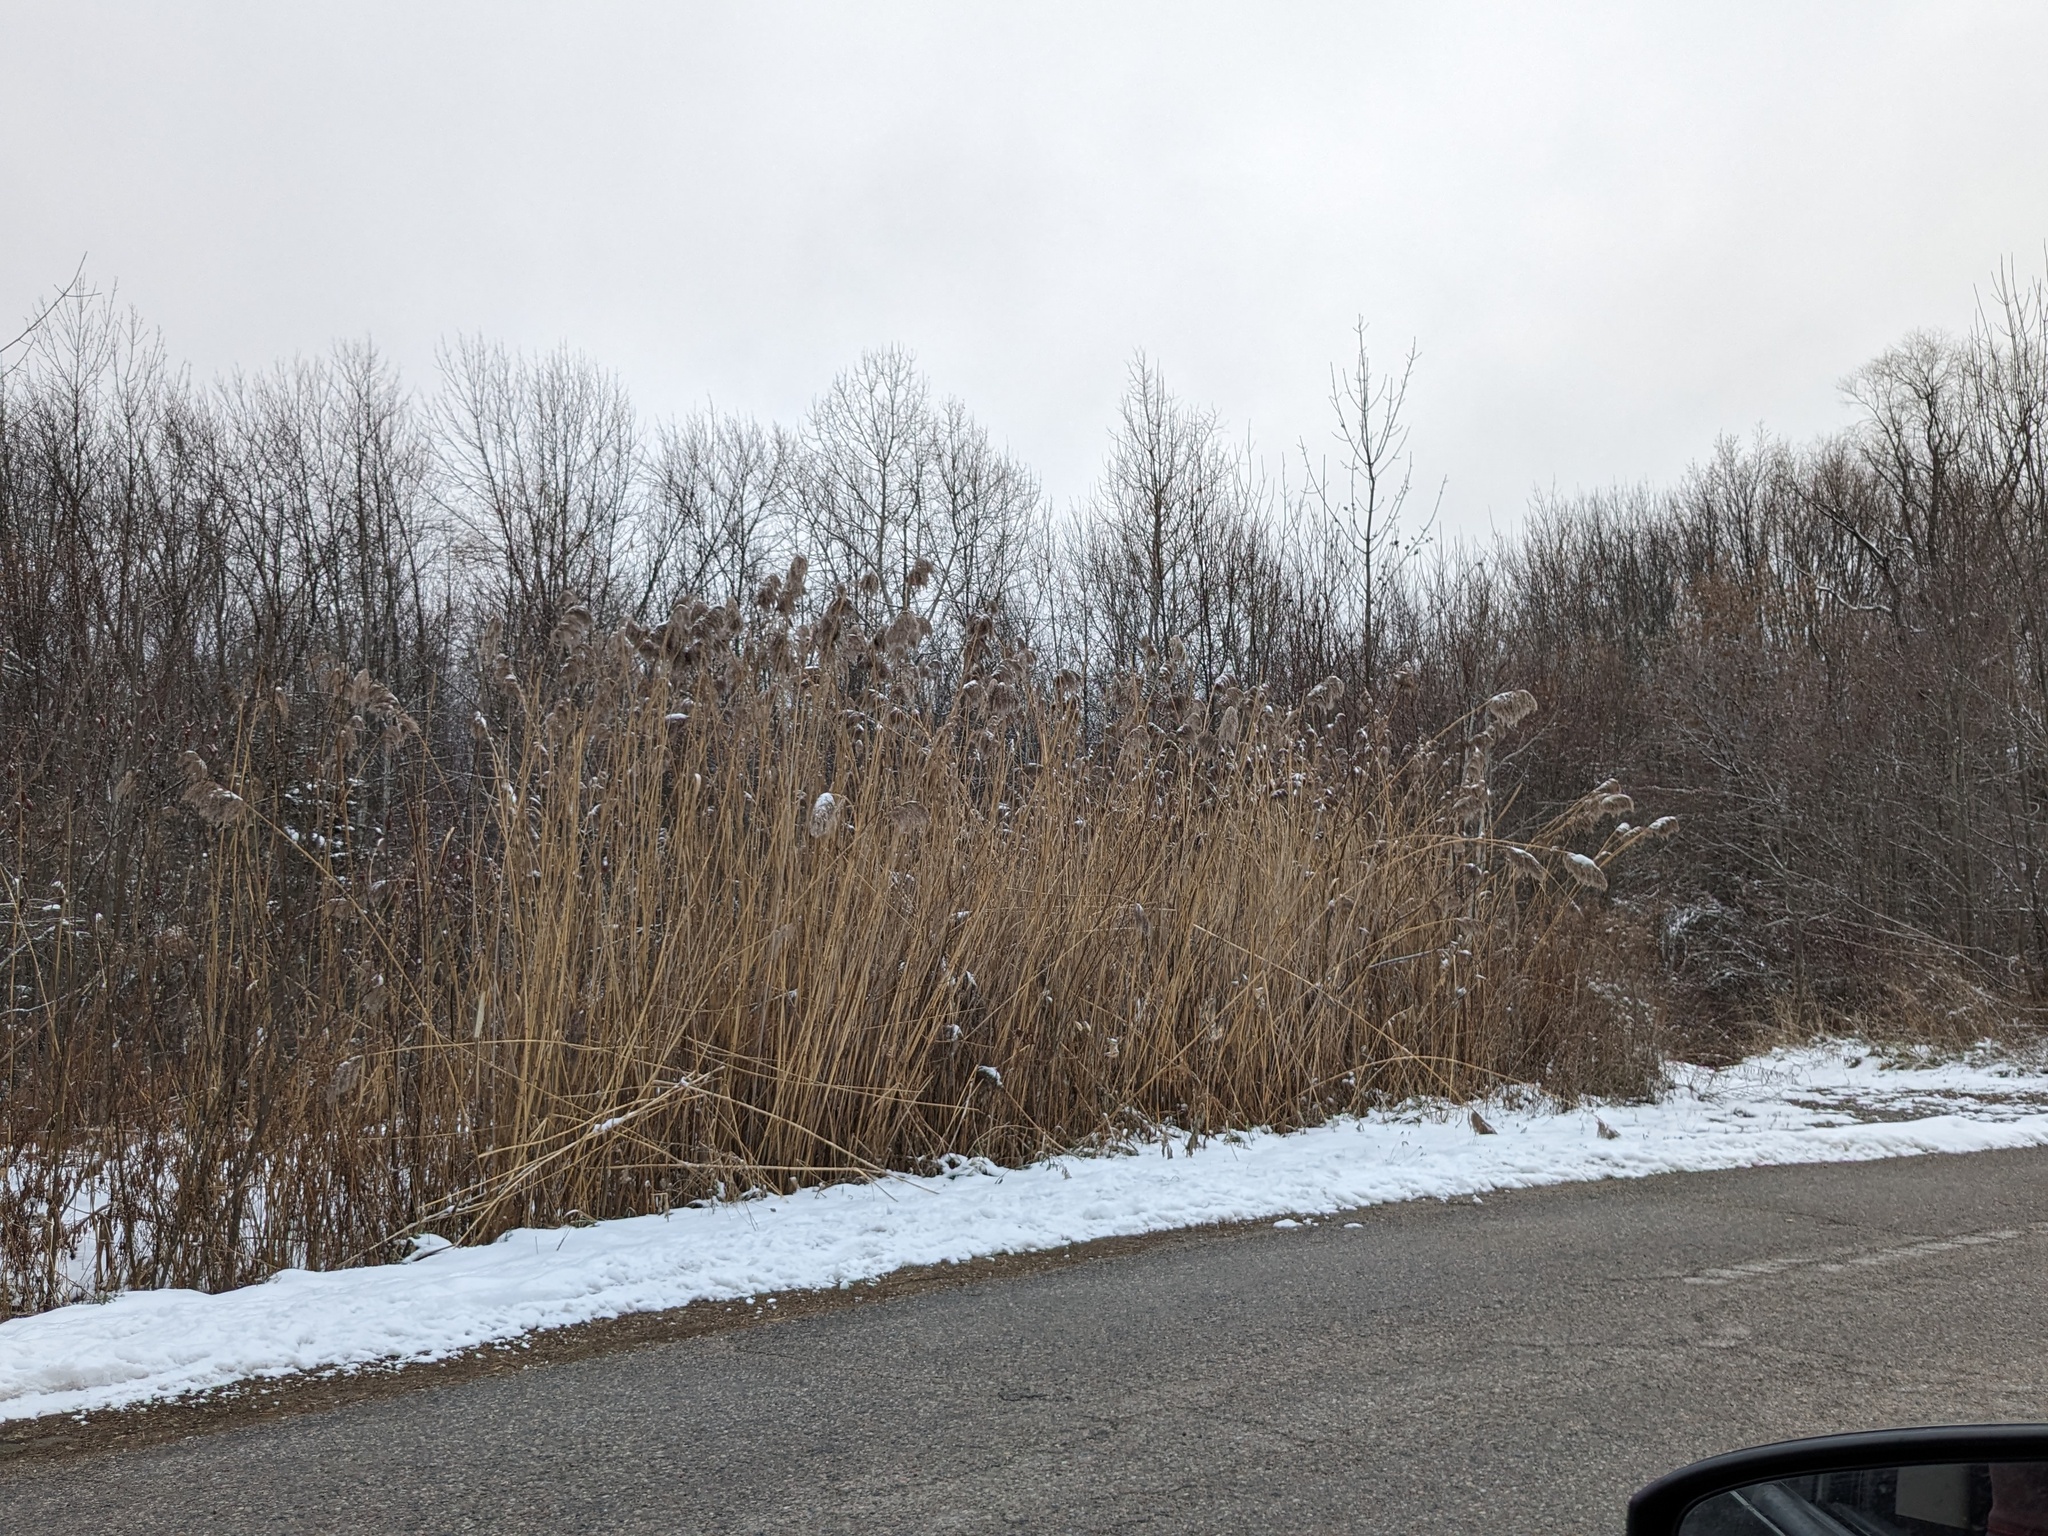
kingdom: Plantae
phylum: Tracheophyta
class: Liliopsida
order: Poales
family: Poaceae
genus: Phragmites
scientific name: Phragmites australis
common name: Common reed
